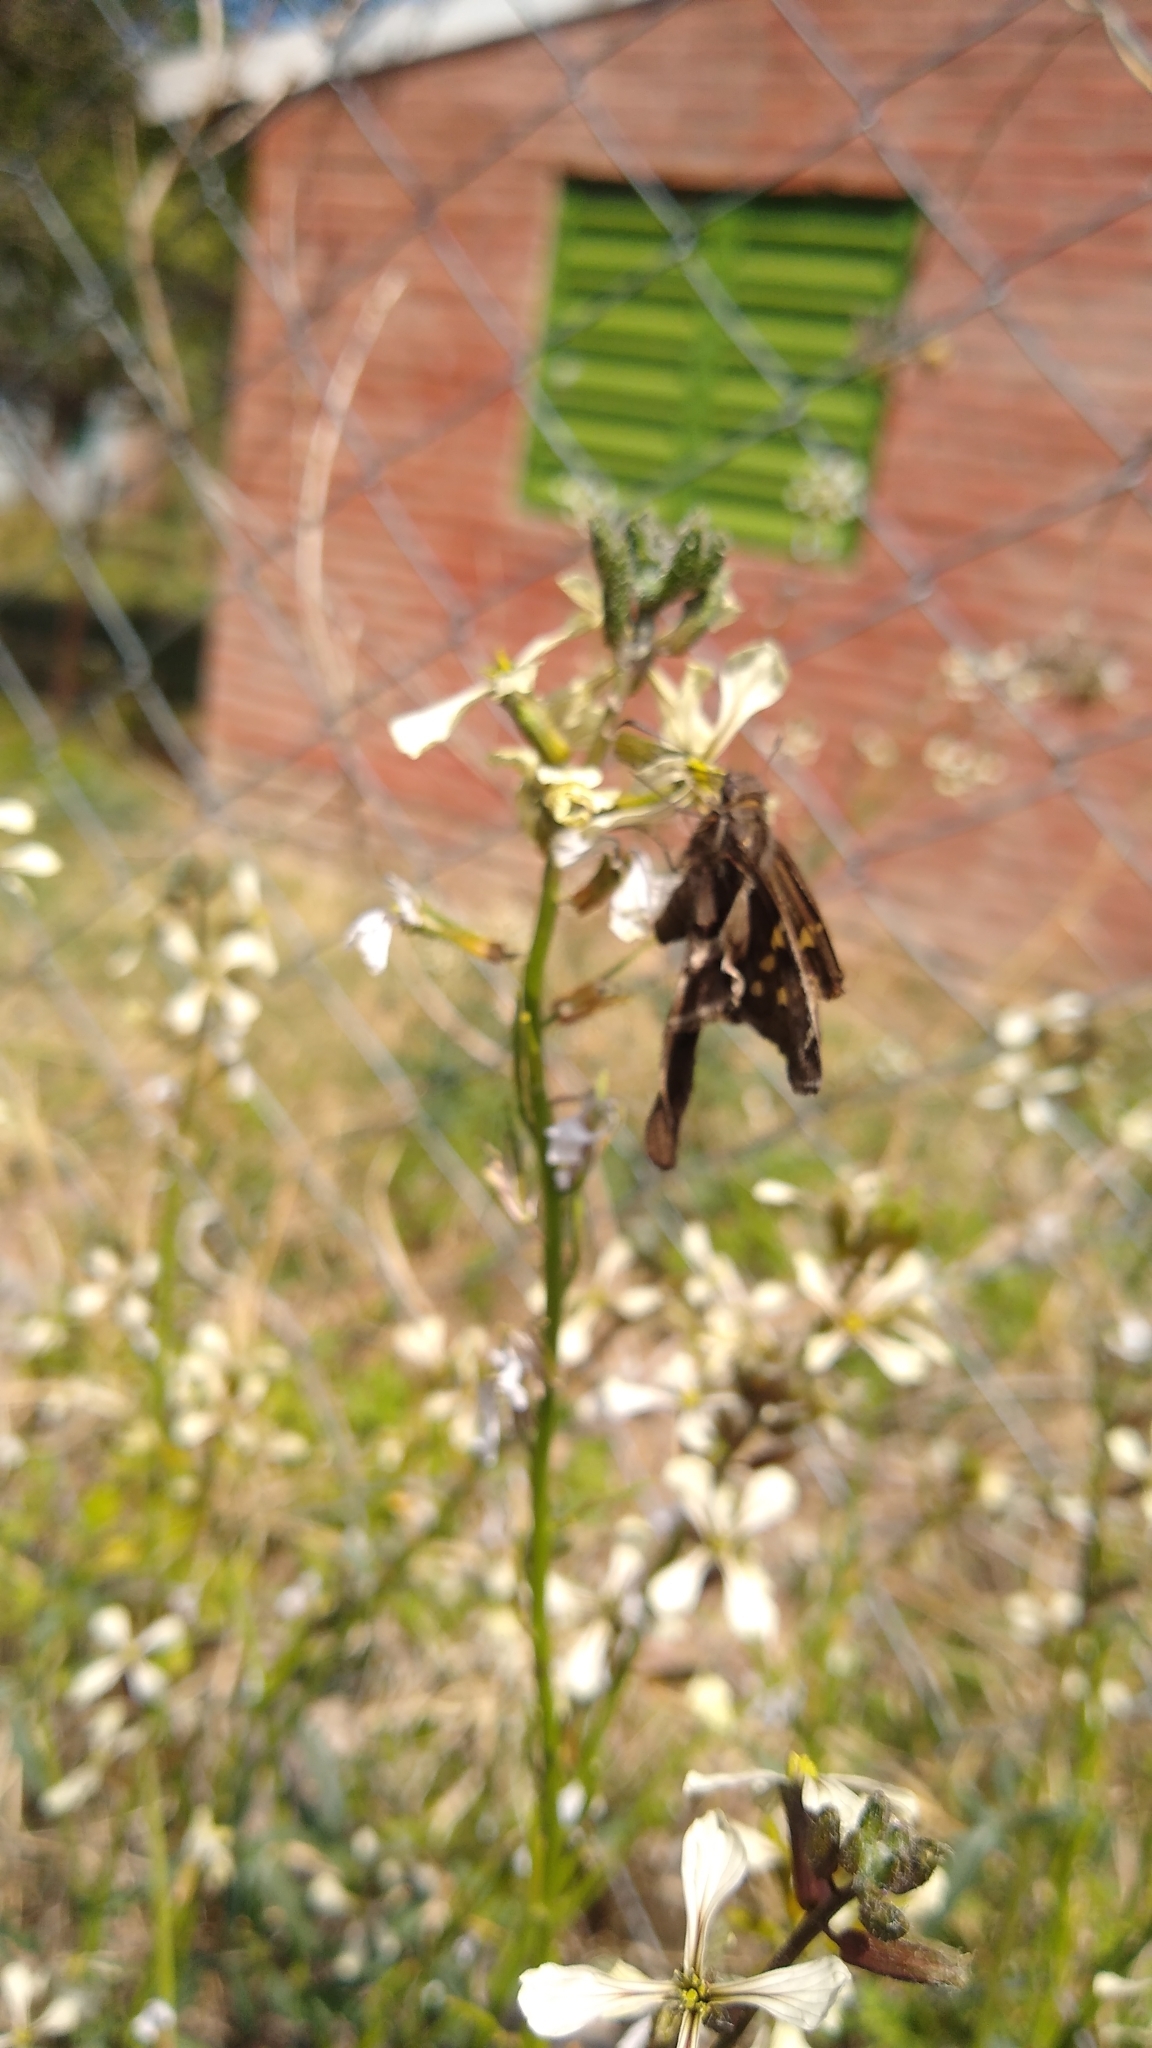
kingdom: Animalia
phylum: Arthropoda
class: Insecta
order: Lepidoptera
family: Hesperiidae
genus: Chioides
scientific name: Chioides catillus
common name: Silverbanded skipper
